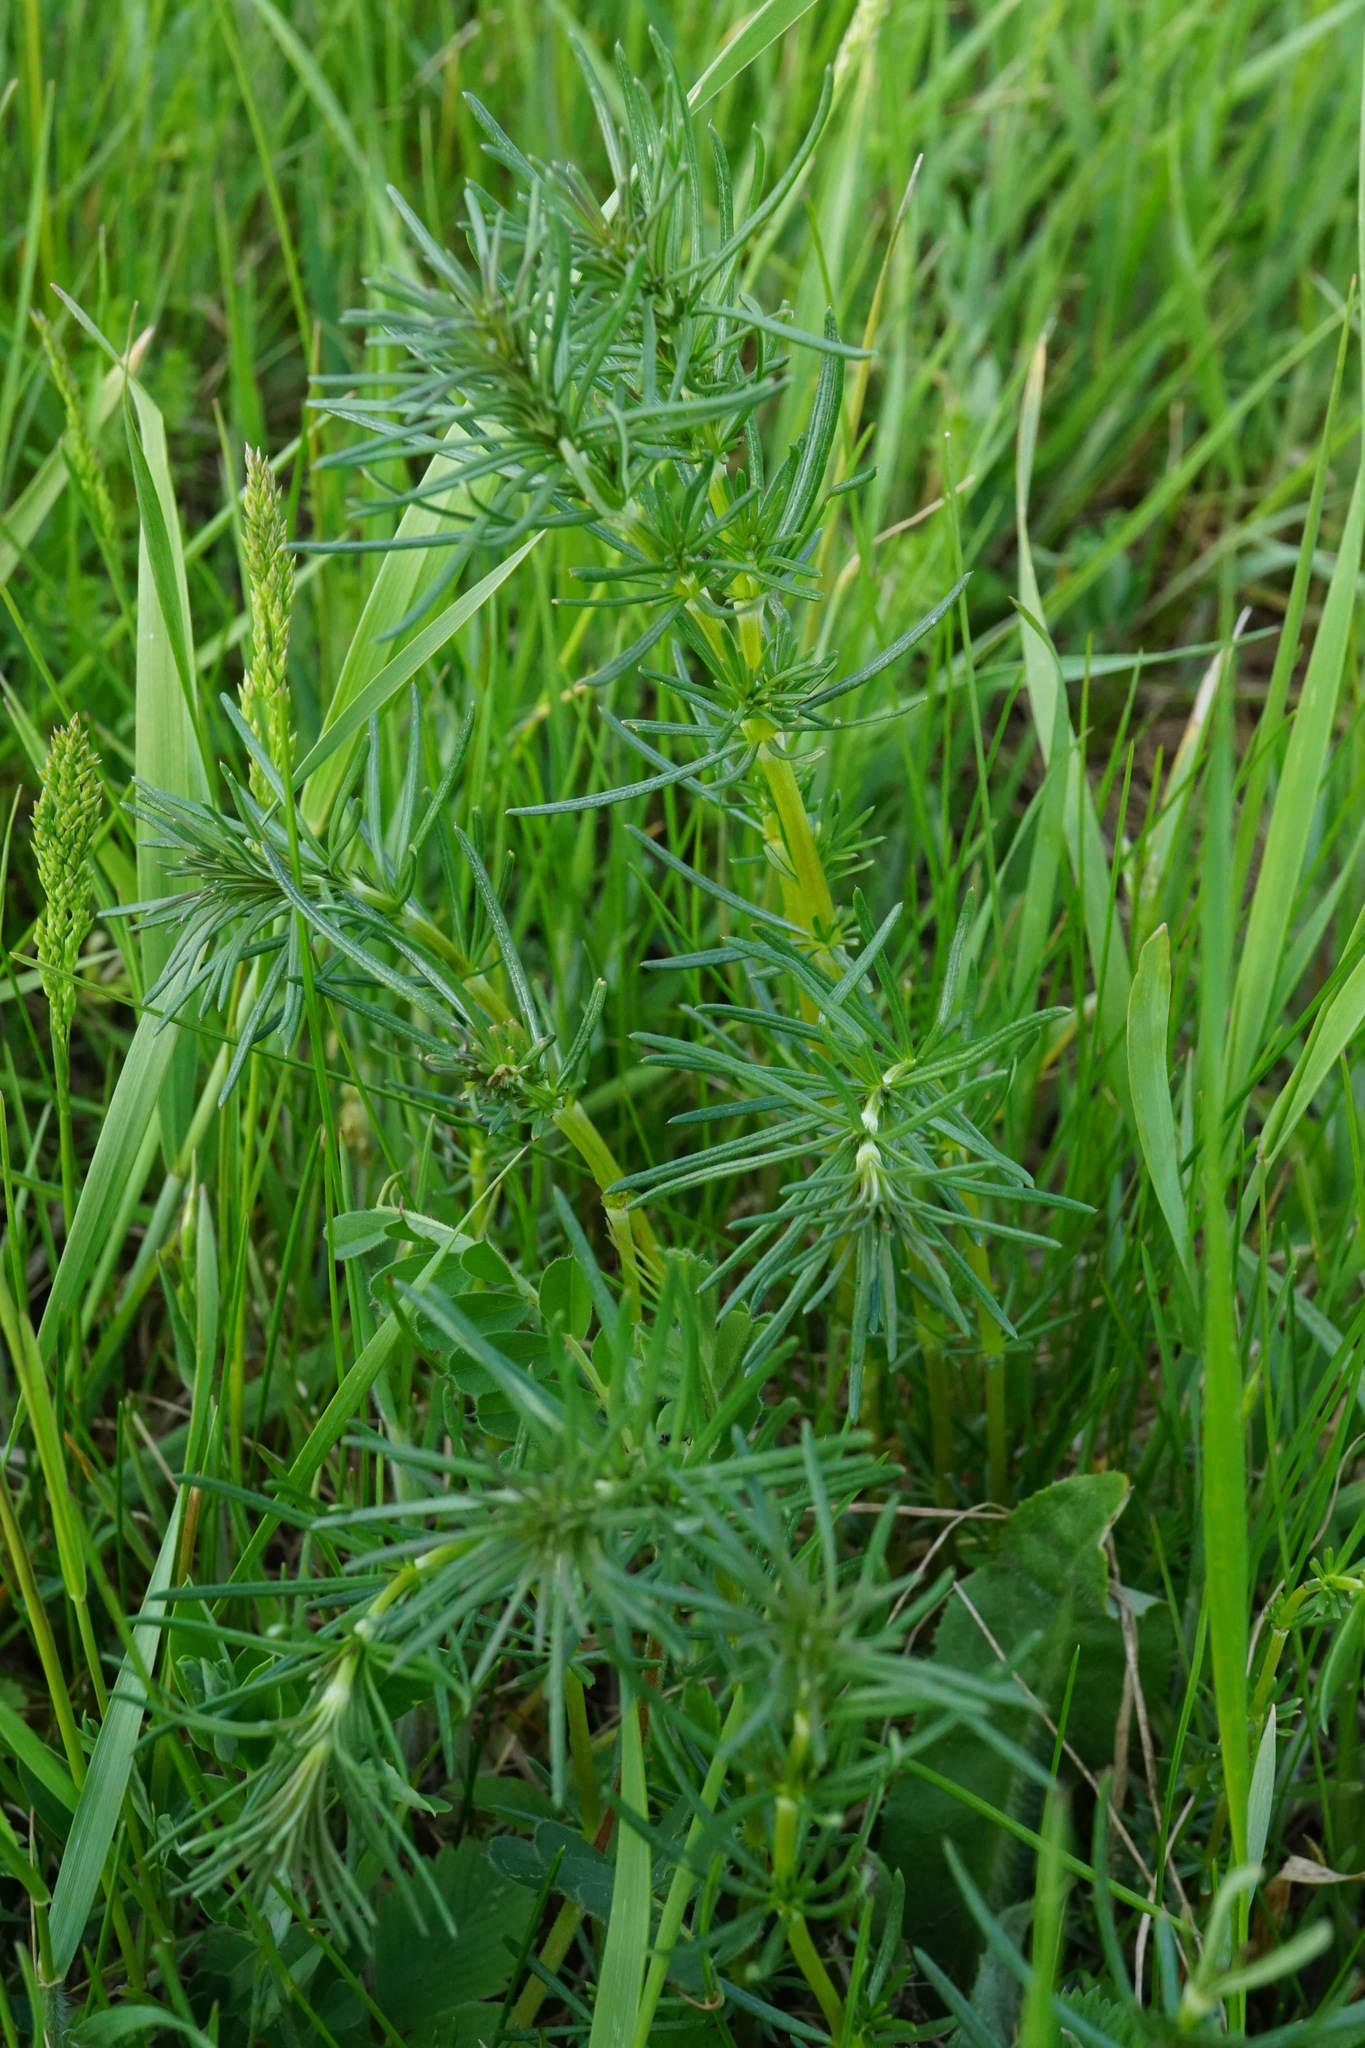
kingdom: Plantae
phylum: Tracheophyta
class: Magnoliopsida
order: Gentianales
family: Rubiaceae
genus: Galium
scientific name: Galium verum
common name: Lady's bedstraw
